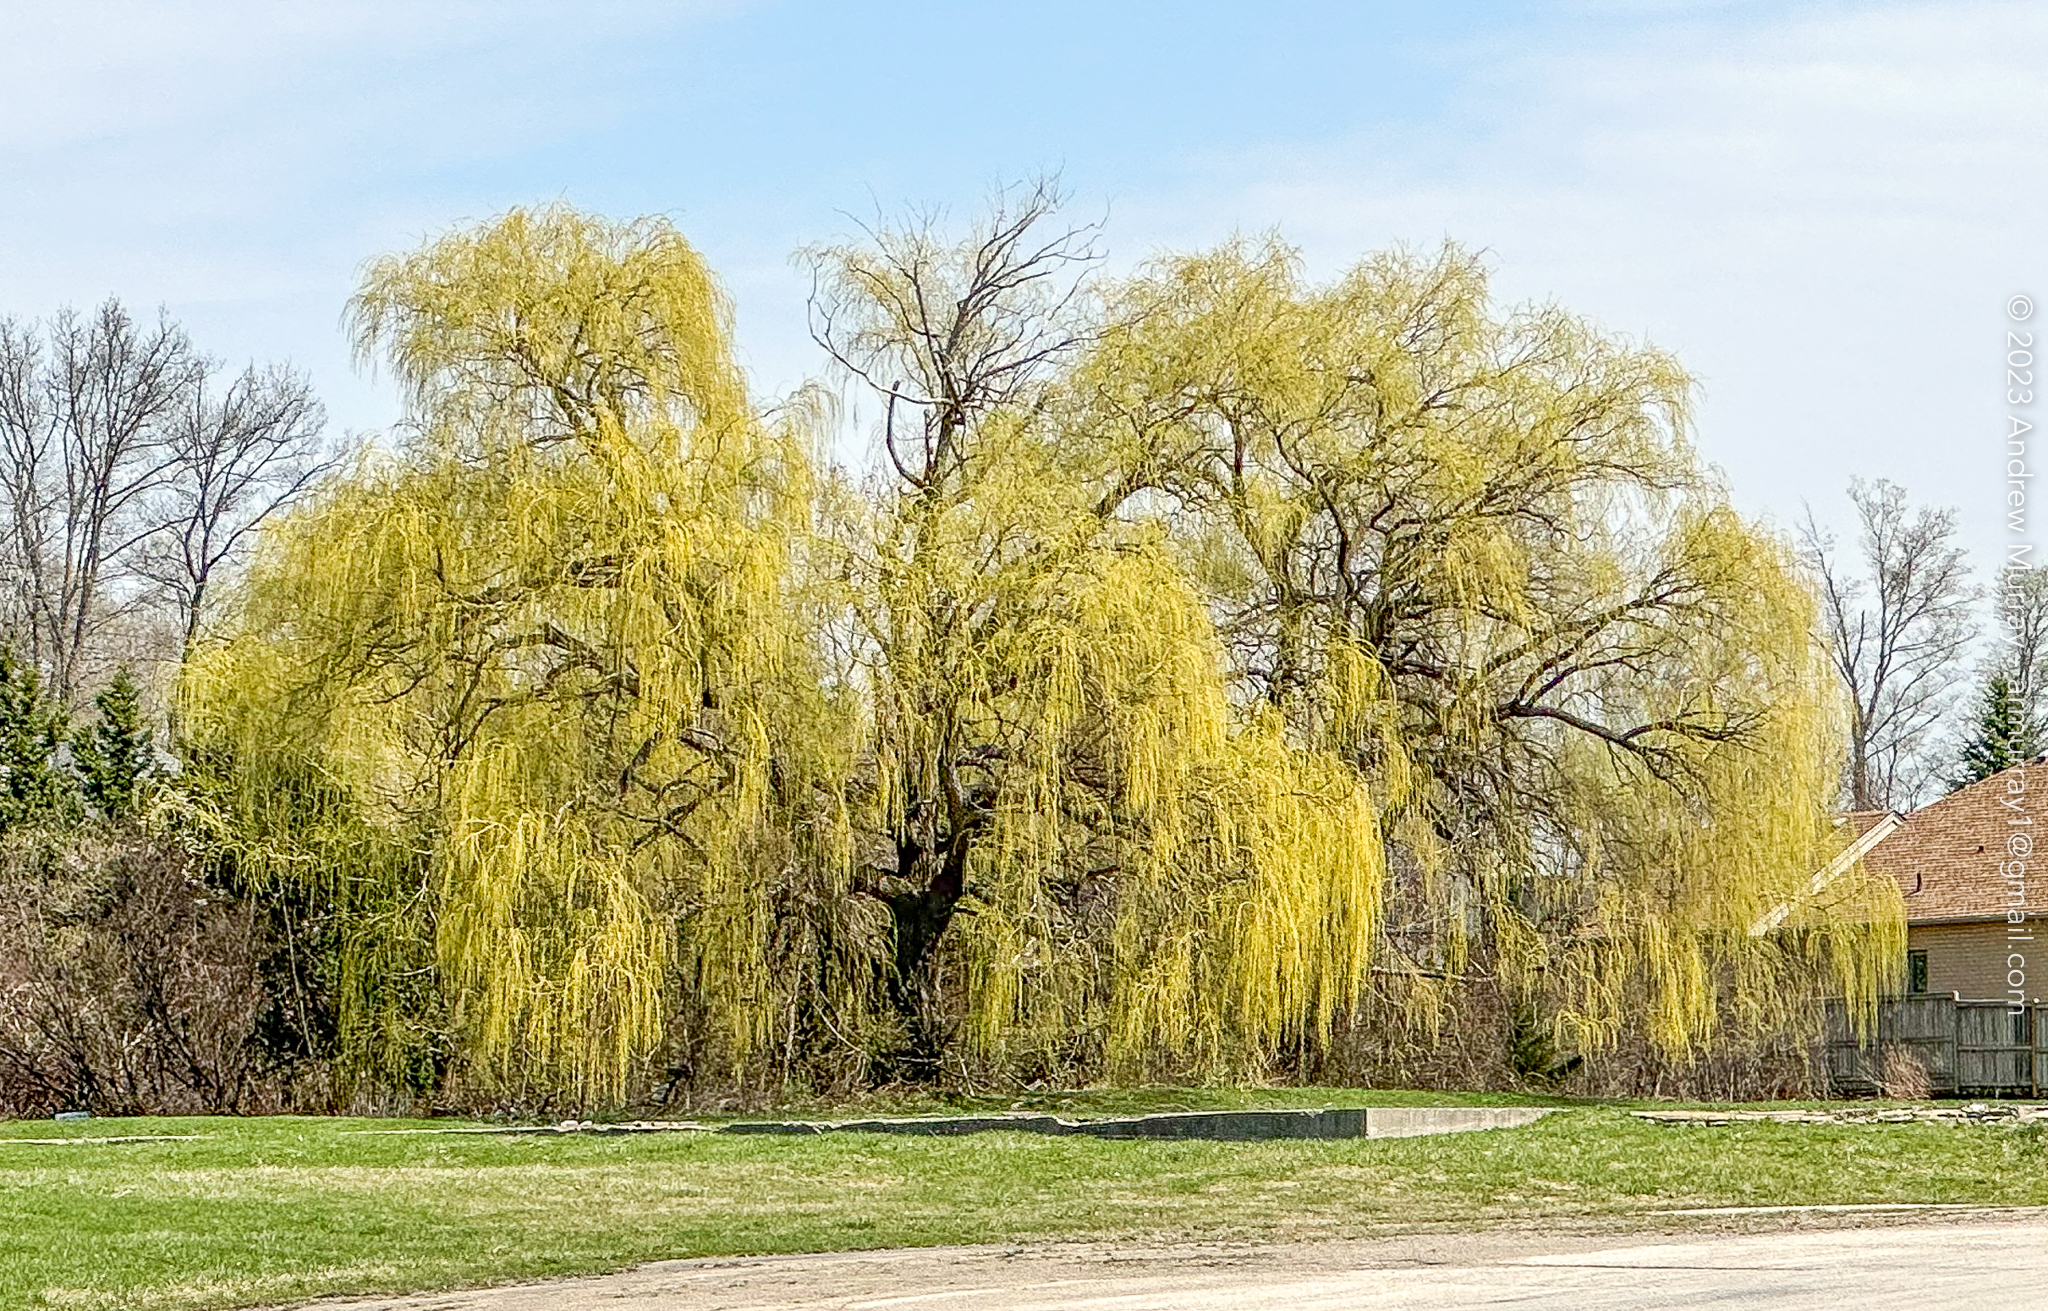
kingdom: Plantae
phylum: Tracheophyta
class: Magnoliopsida
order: Malpighiales
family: Salicaceae
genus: Salix
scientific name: Salix pendulina
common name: Wisconsin weeping willow
